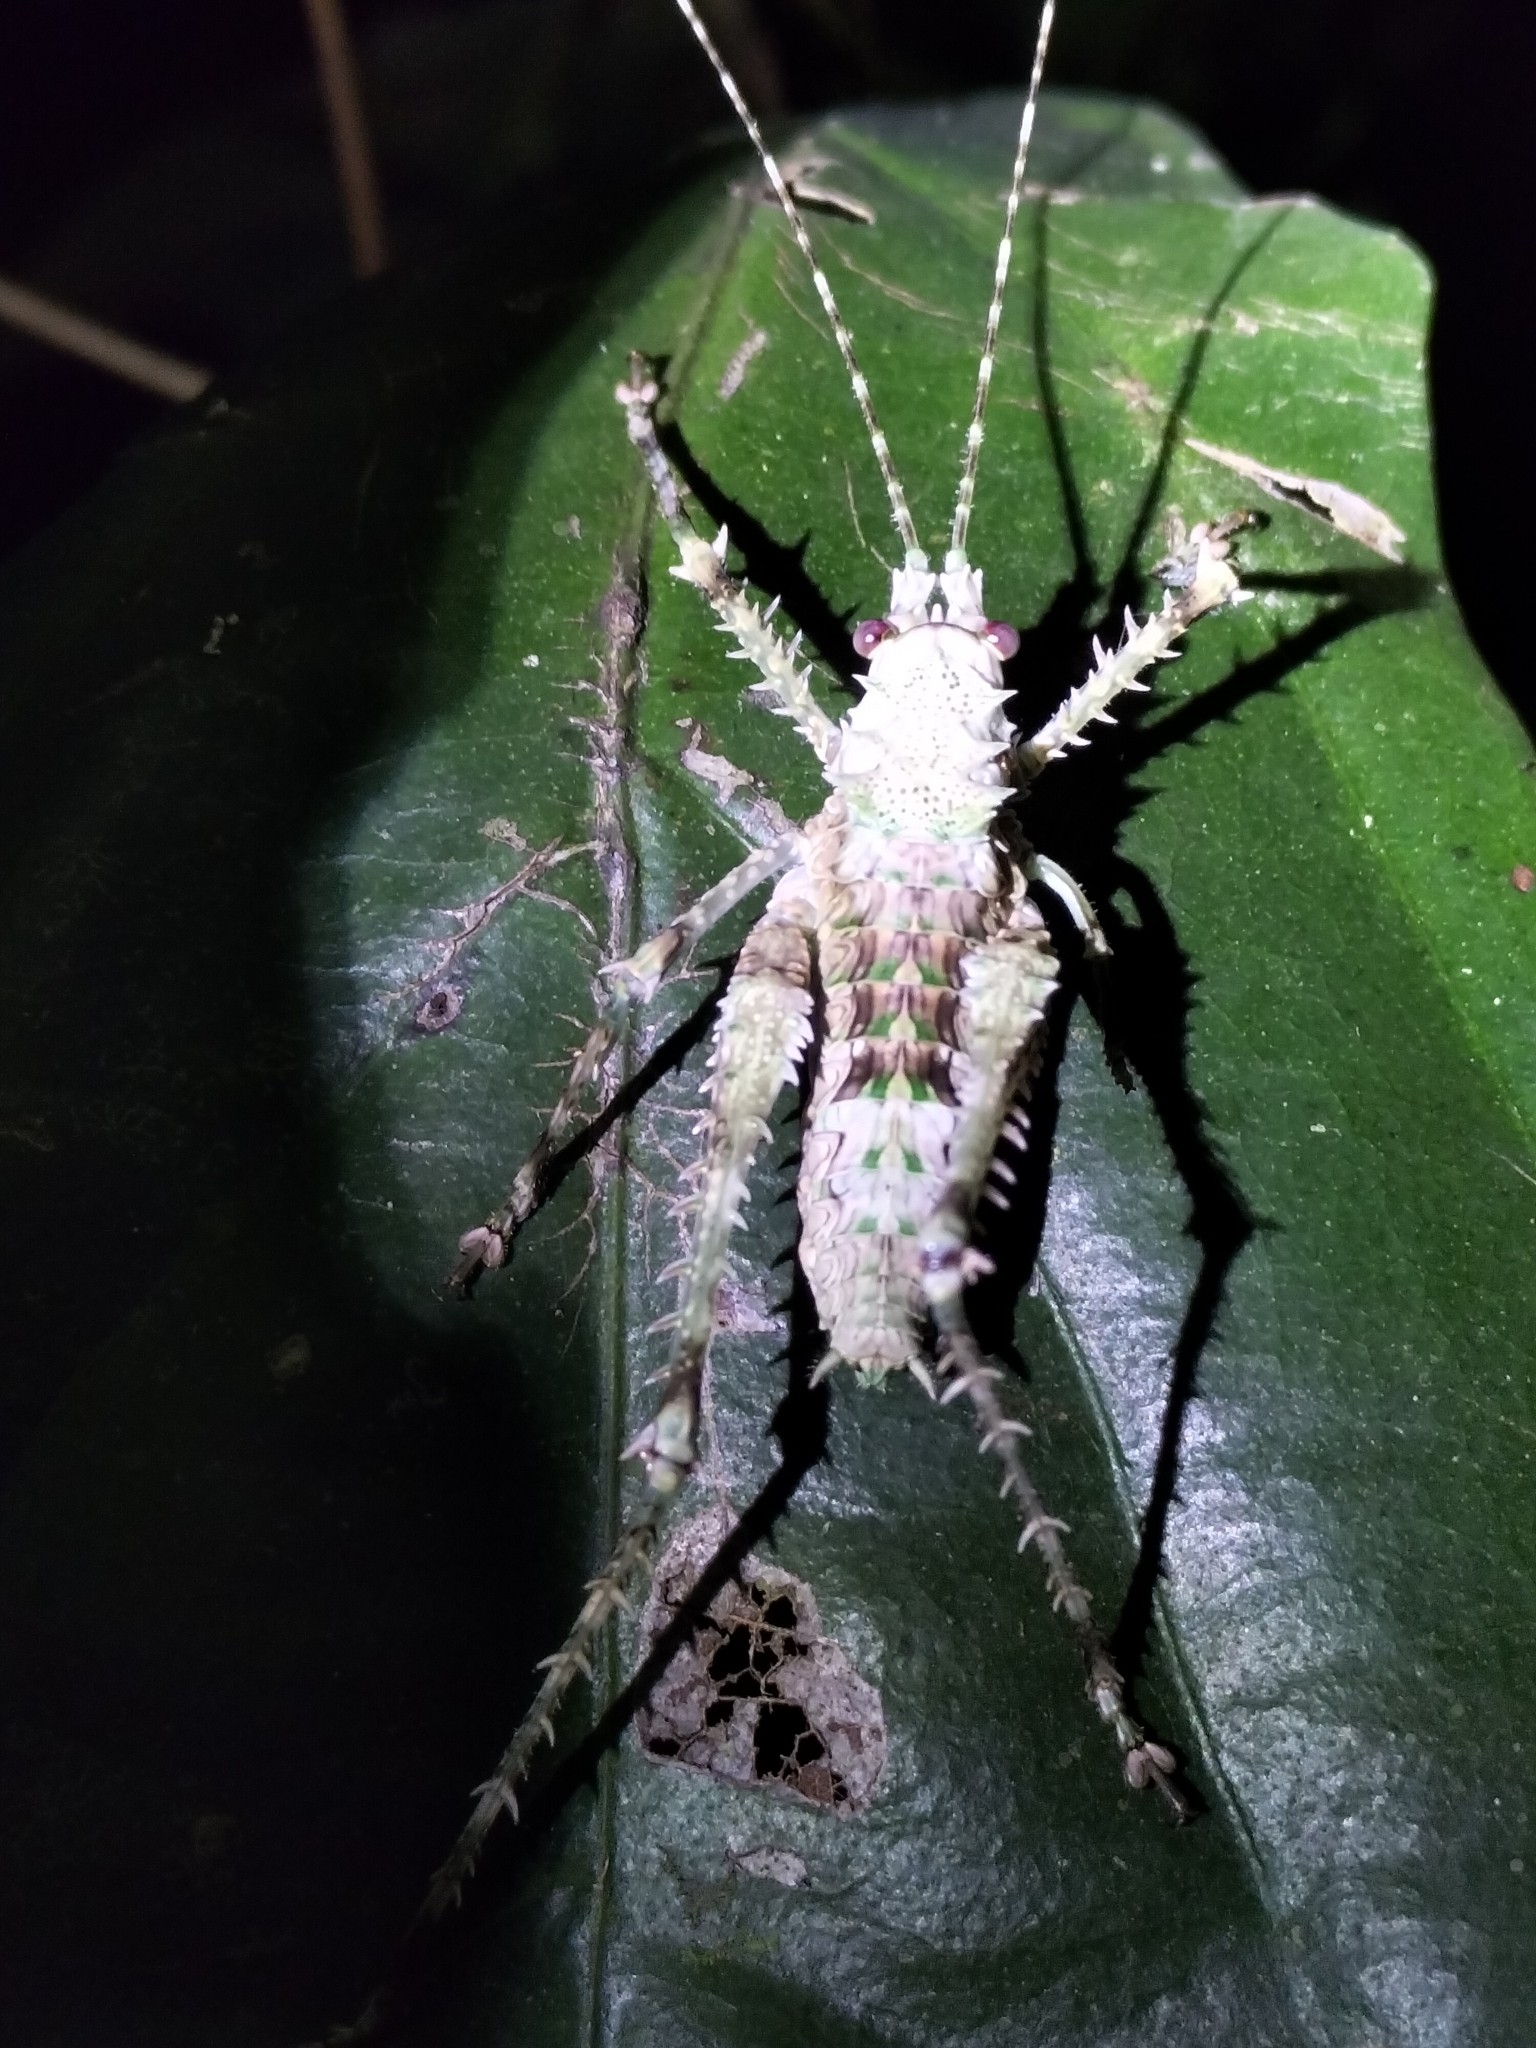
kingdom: Animalia
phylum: Arthropoda
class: Insecta
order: Orthoptera
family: Tettigoniidae
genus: Phricta
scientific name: Phricta spinosa
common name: Giant spiny forest katydid
